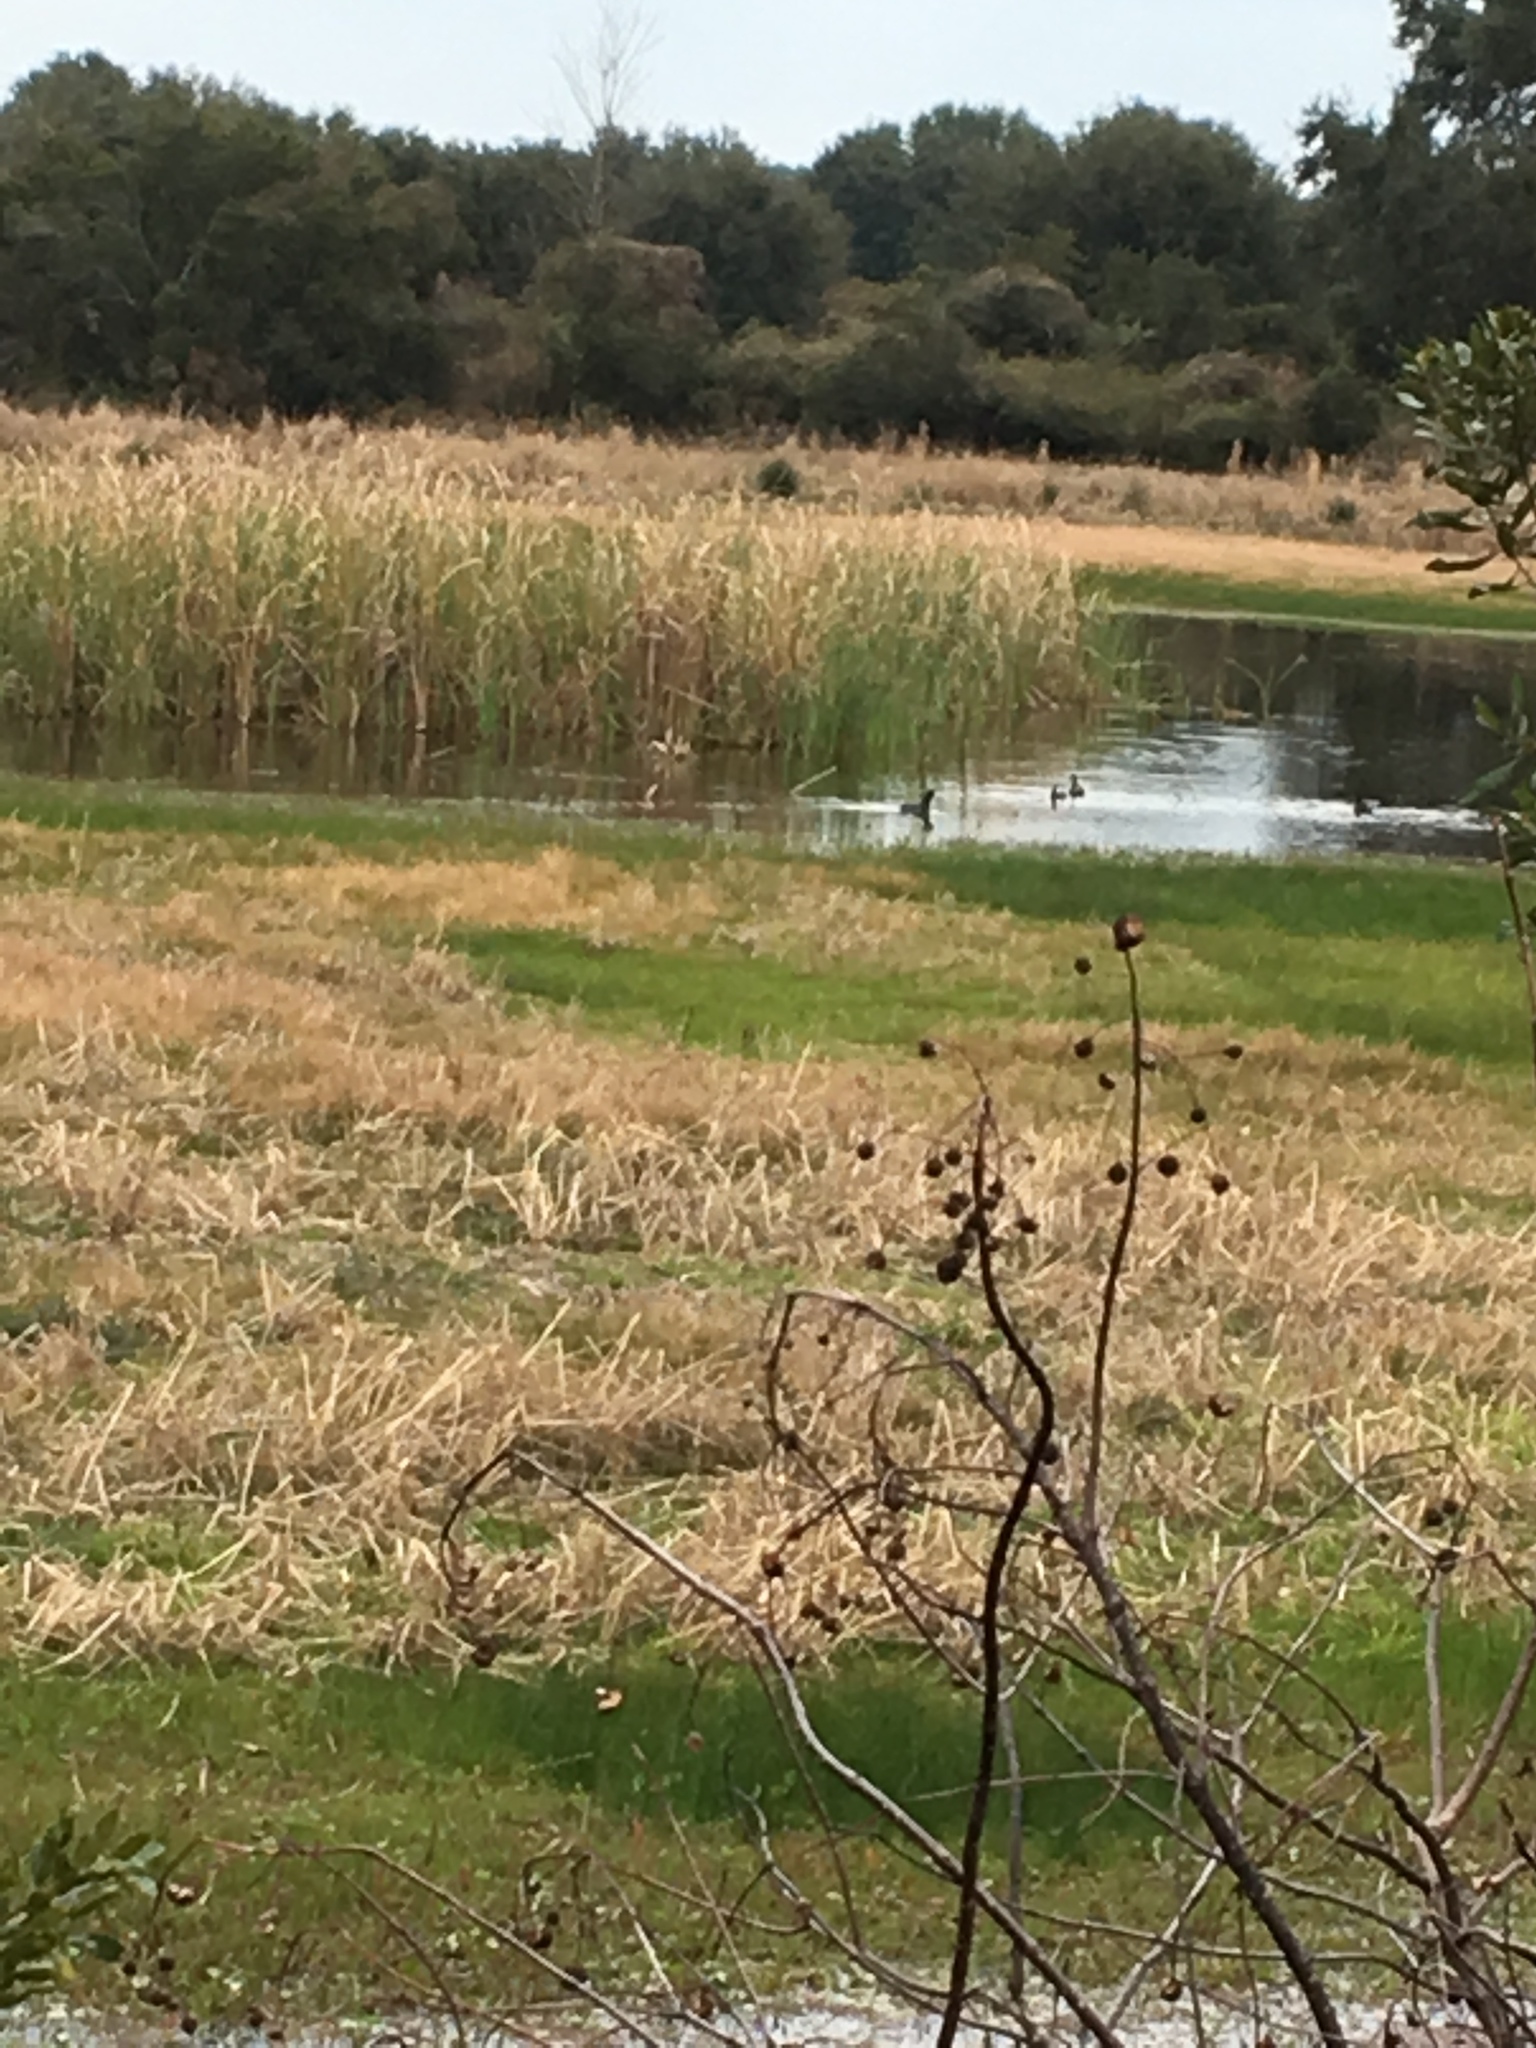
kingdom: Animalia
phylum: Chordata
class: Aves
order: Gruiformes
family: Rallidae
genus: Fulica
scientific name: Fulica americana
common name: American coot
